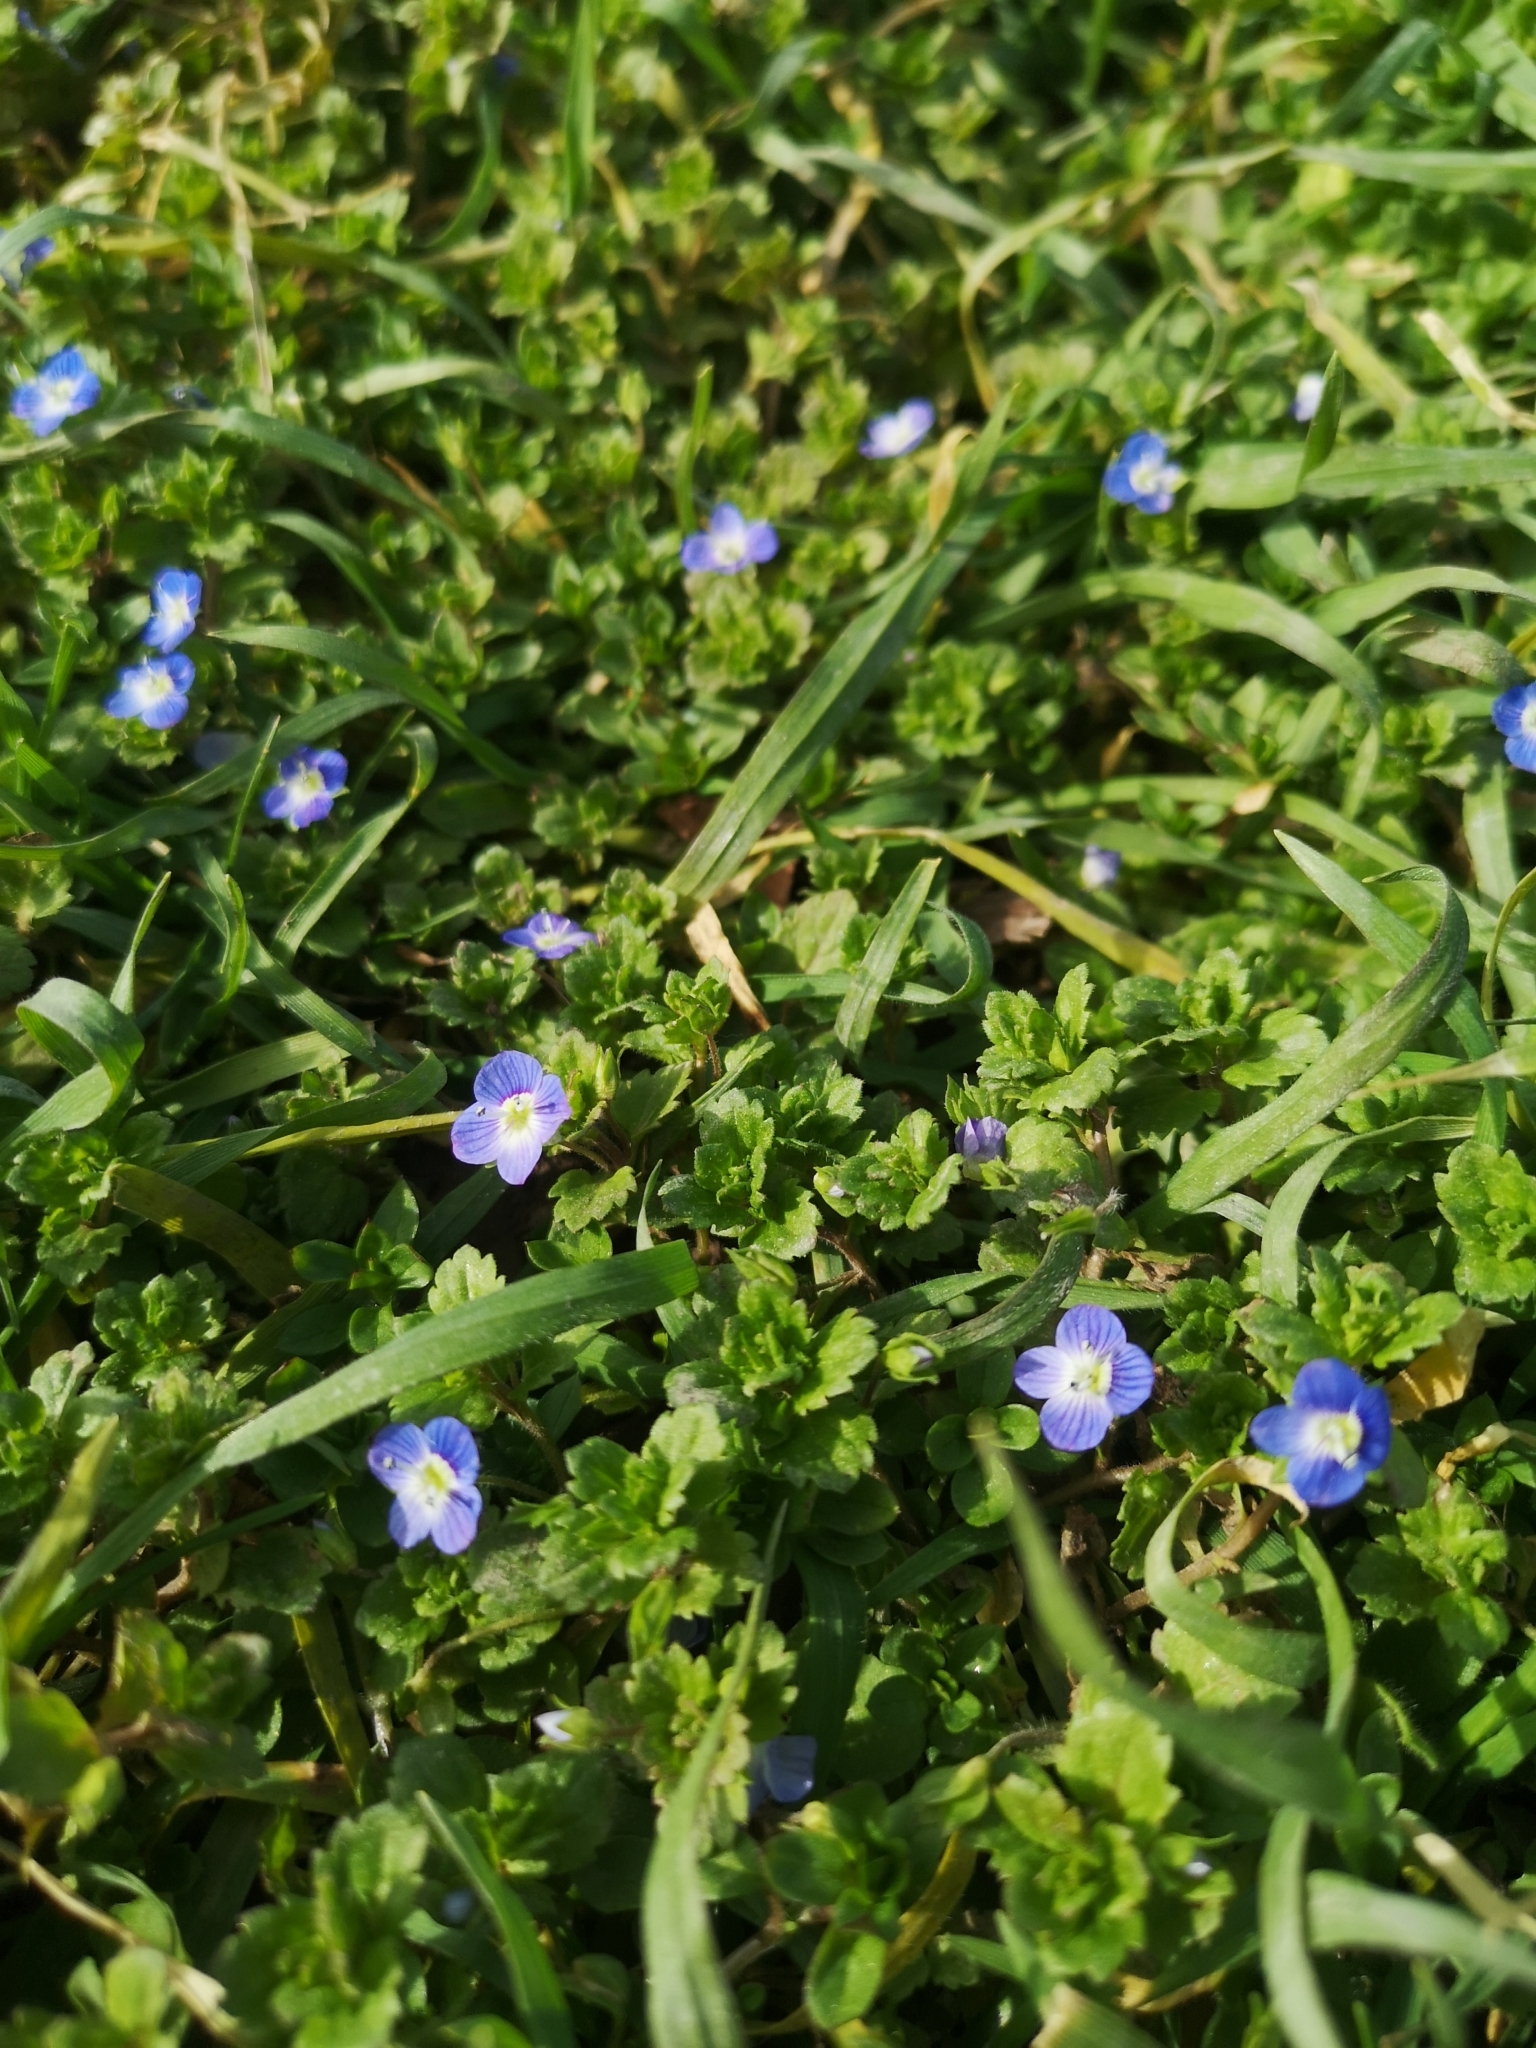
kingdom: Plantae
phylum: Tracheophyta
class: Magnoliopsida
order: Lamiales
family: Plantaginaceae
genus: Veronica
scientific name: Veronica persica
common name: Common field-speedwell
